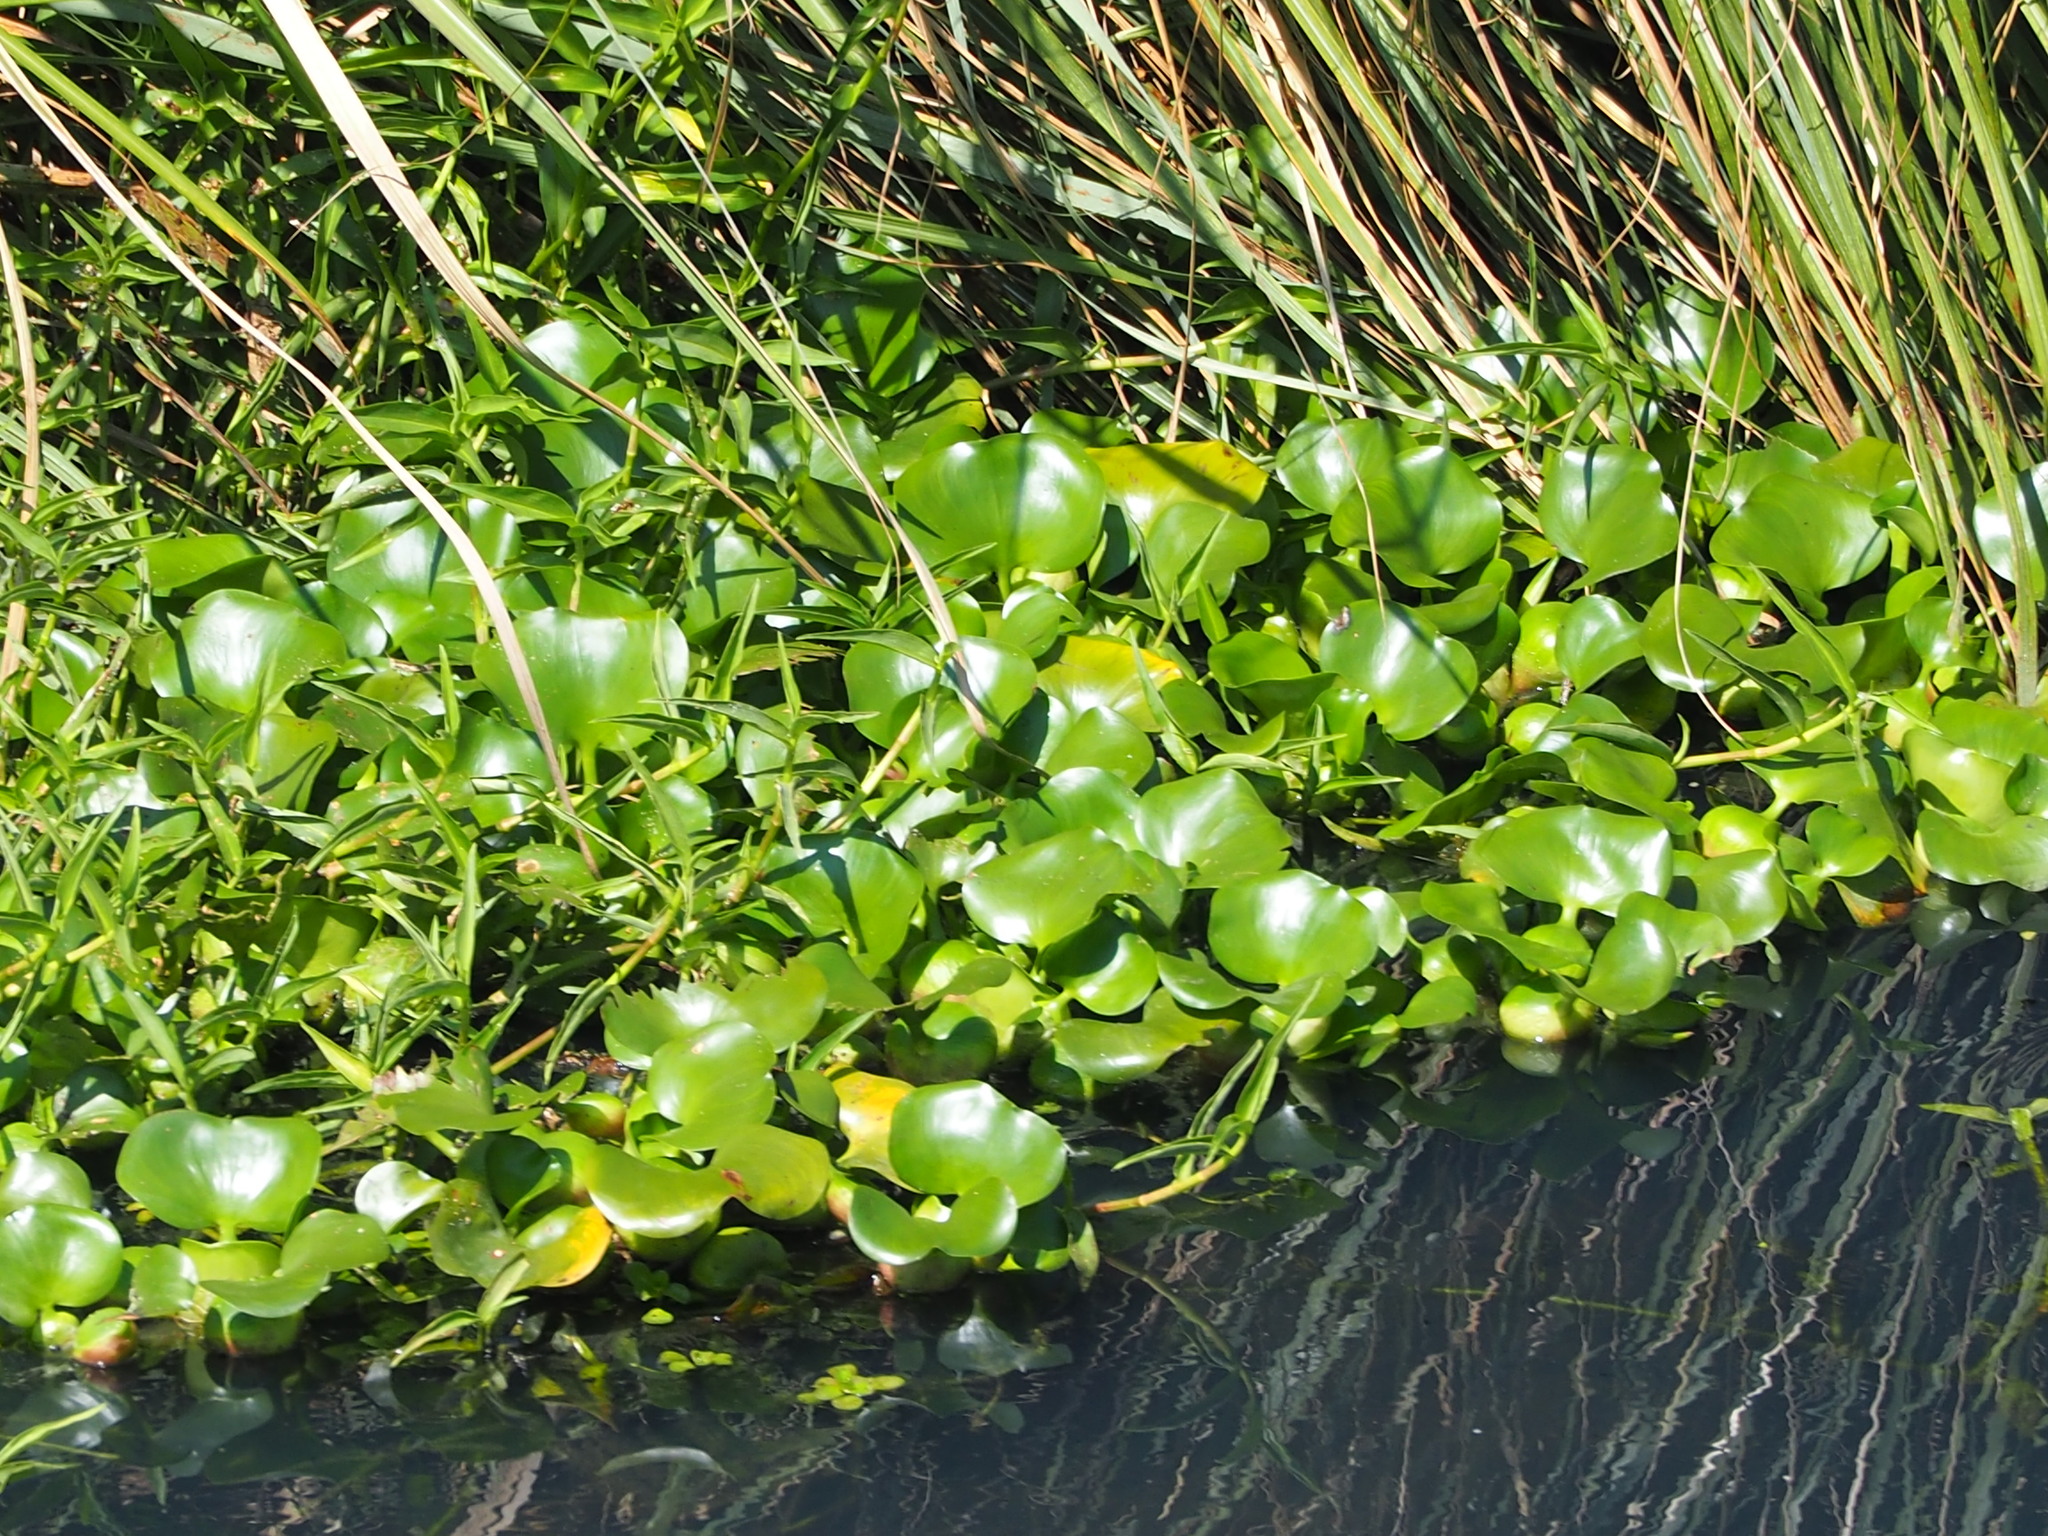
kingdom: Plantae
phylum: Tracheophyta
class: Liliopsida
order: Commelinales
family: Pontederiaceae
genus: Pontederia
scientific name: Pontederia crassipes
